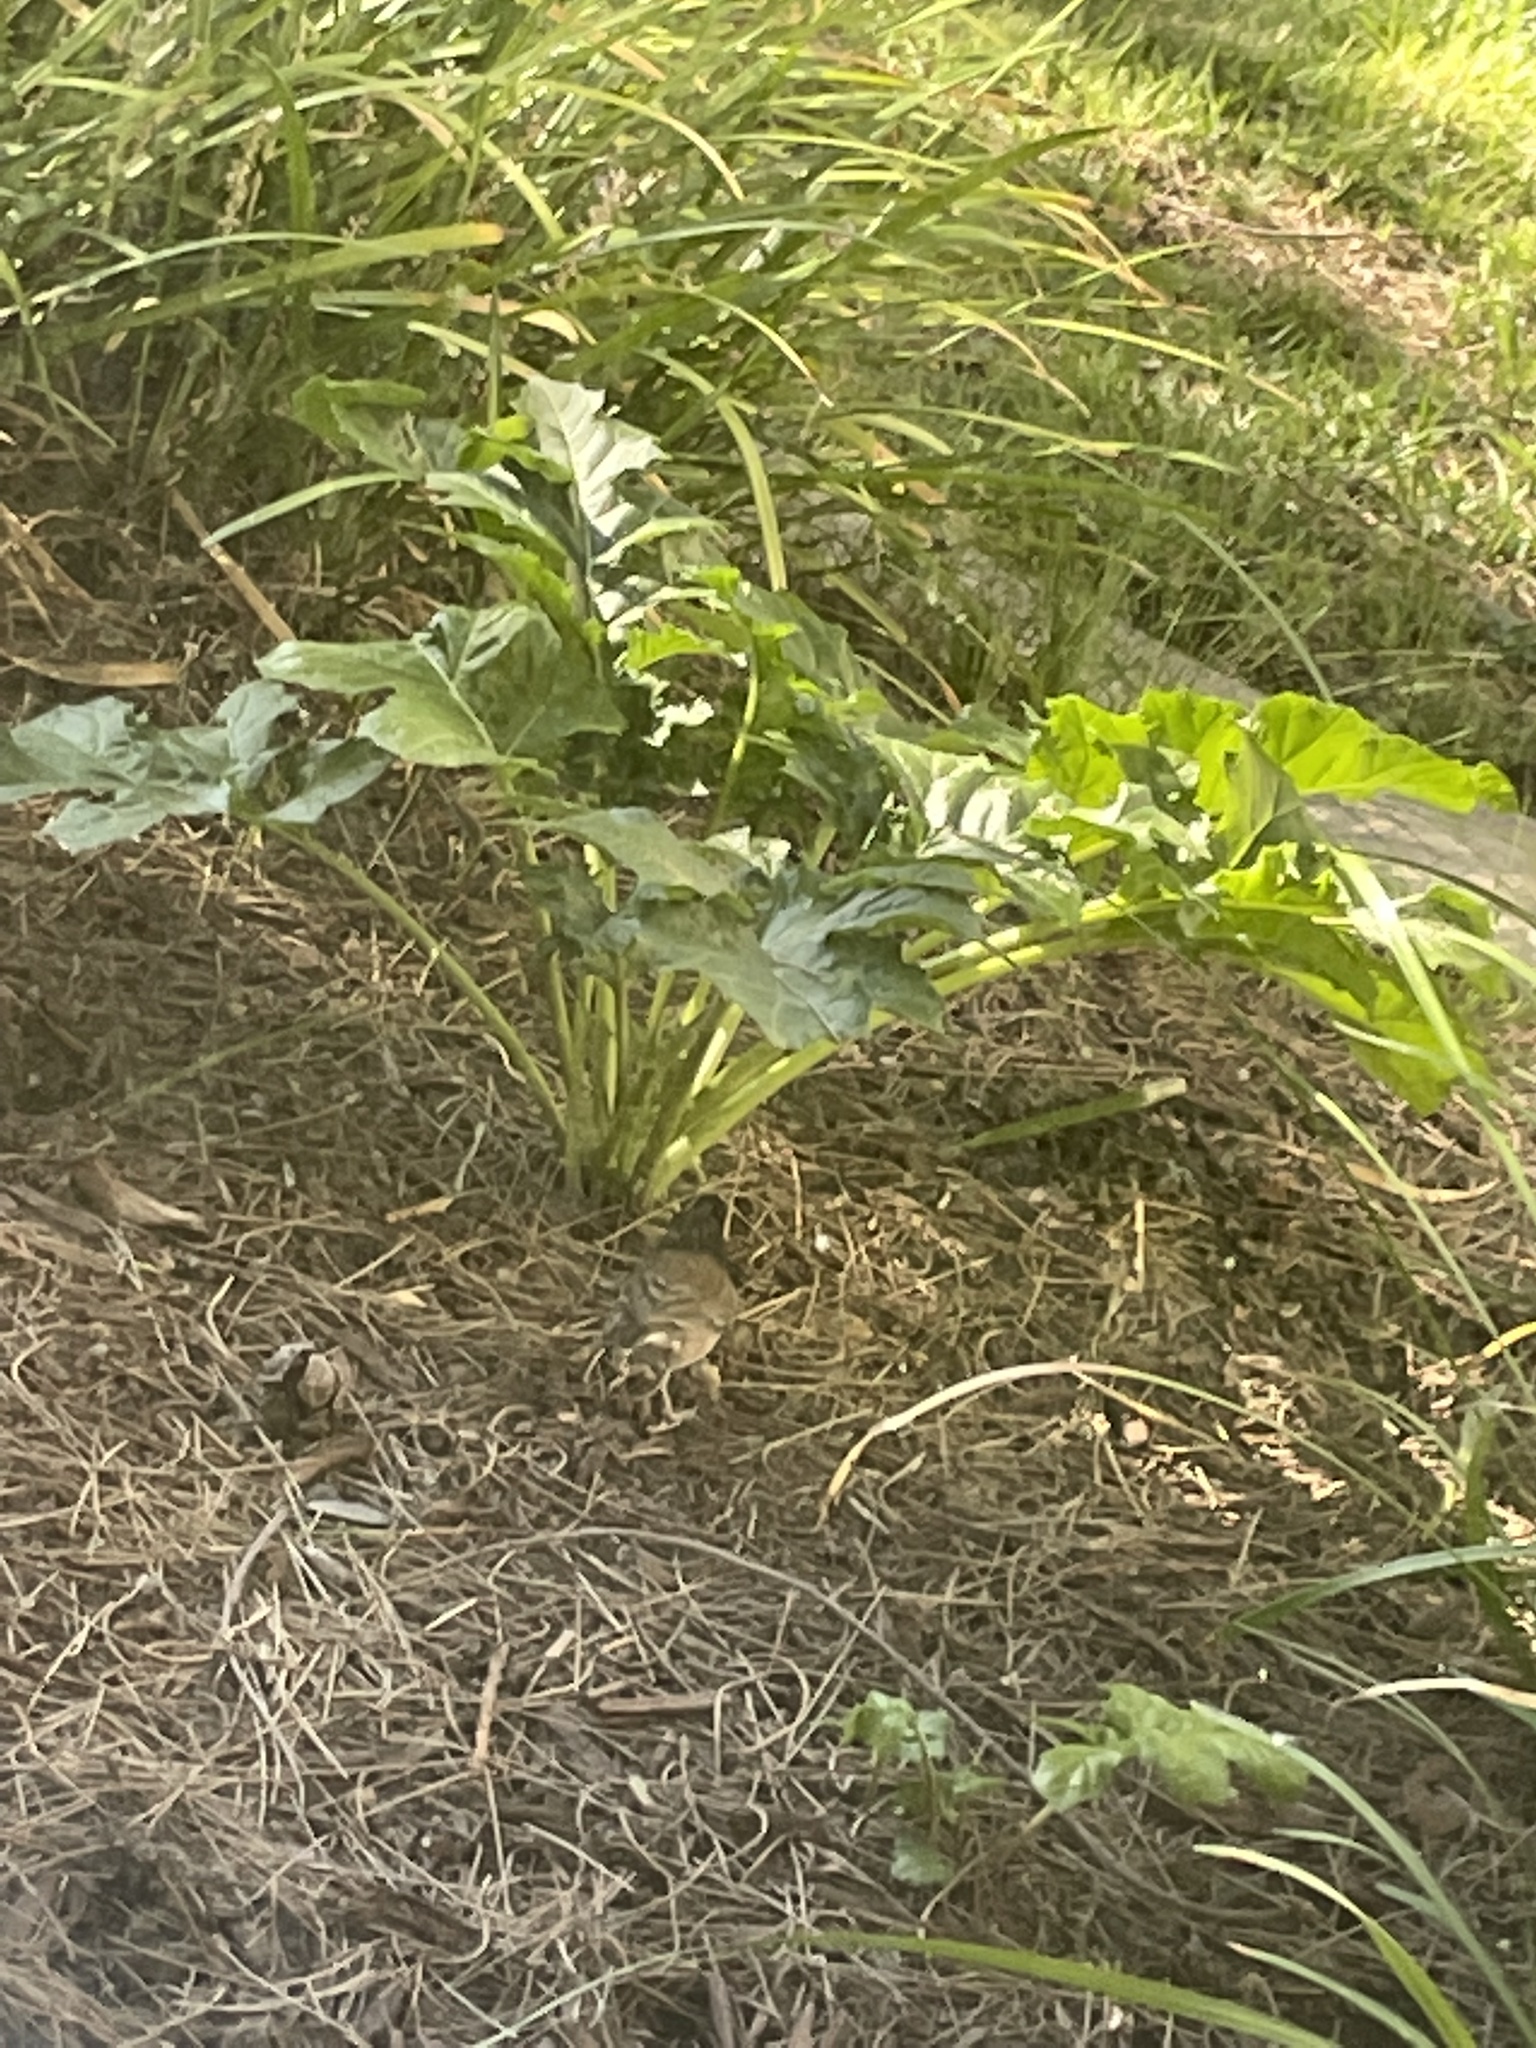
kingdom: Animalia
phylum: Chordata
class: Aves
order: Passeriformes
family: Passerellidae
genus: Junco
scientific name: Junco hyemalis
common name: Dark-eyed junco
